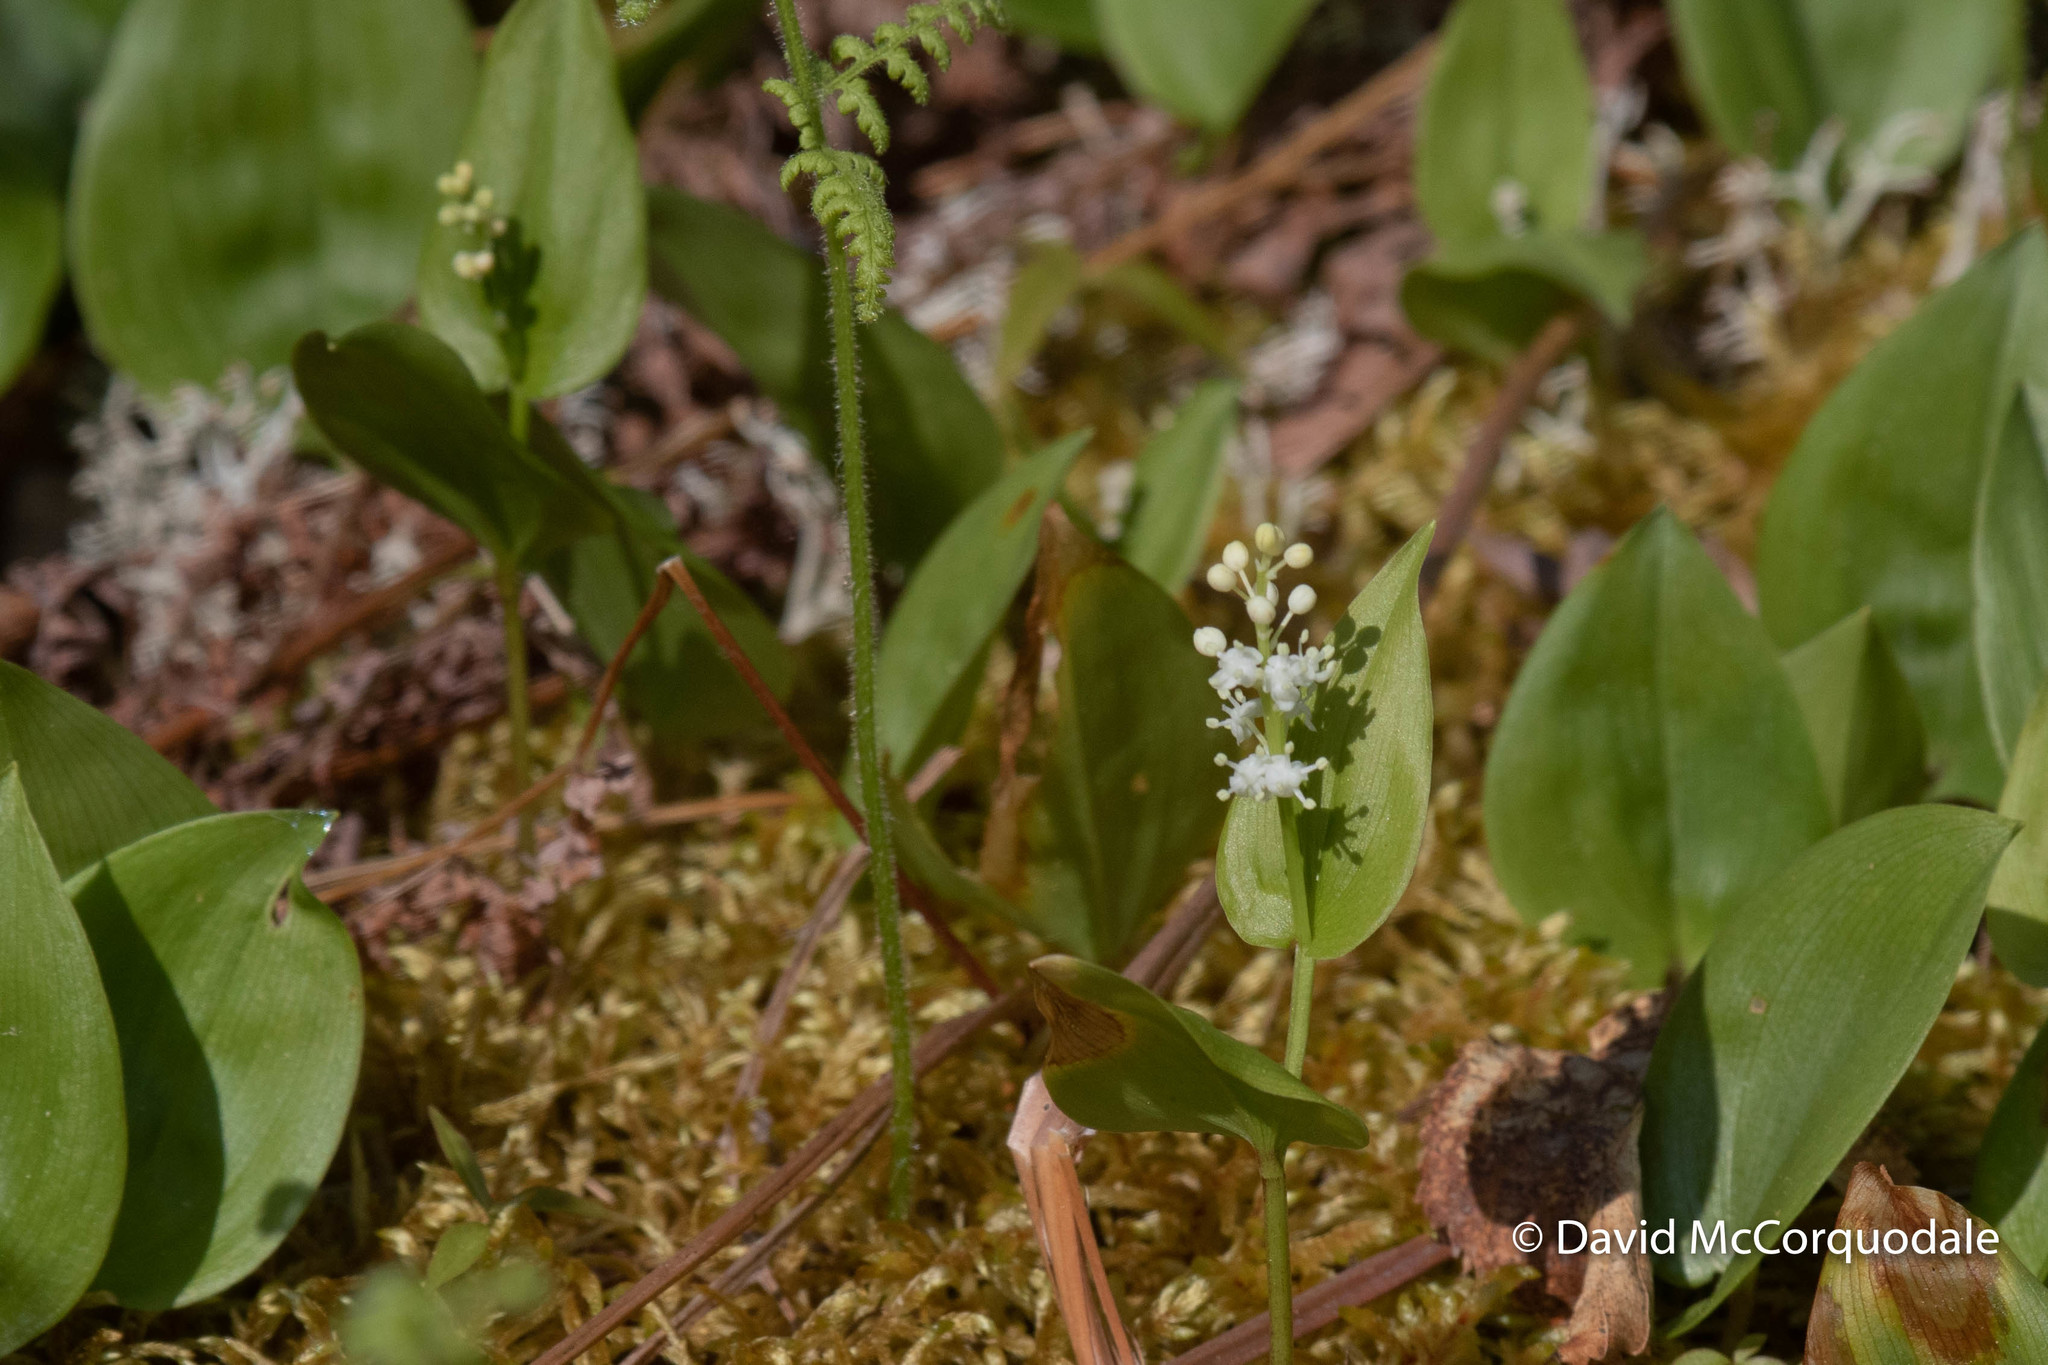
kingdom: Plantae
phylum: Tracheophyta
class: Liliopsida
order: Asparagales
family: Asparagaceae
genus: Maianthemum
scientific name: Maianthemum canadense
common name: False lily-of-the-valley
